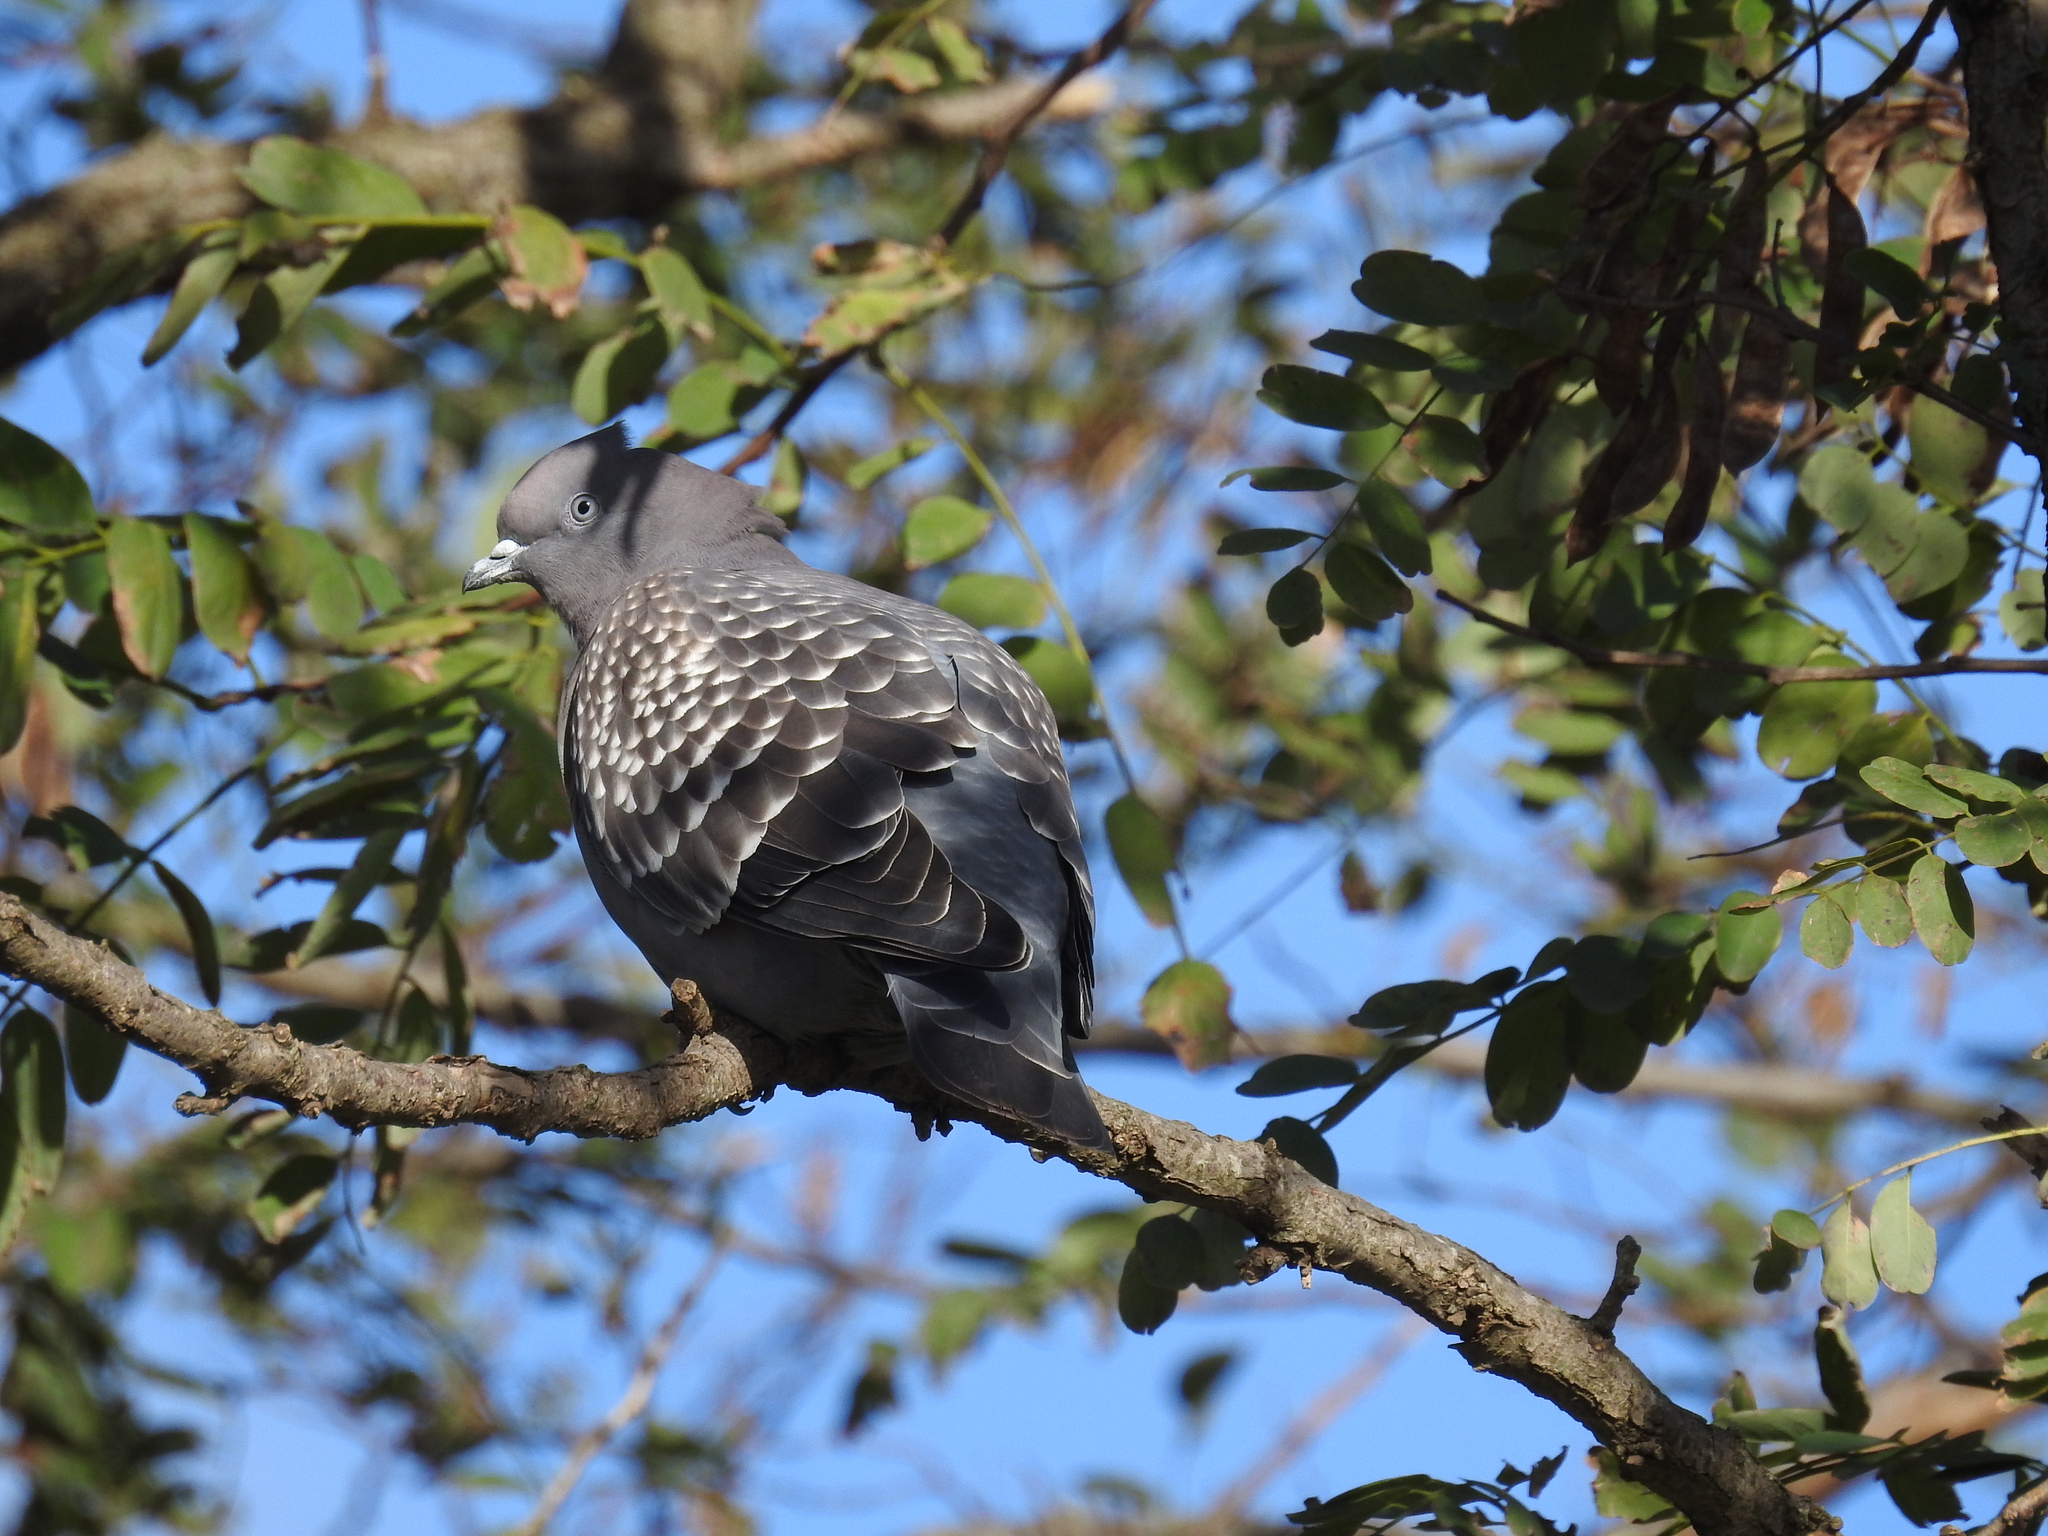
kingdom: Animalia
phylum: Chordata
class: Aves
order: Columbiformes
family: Columbidae
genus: Patagioenas
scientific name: Patagioenas maculosa
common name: Spot-winged pigeon
